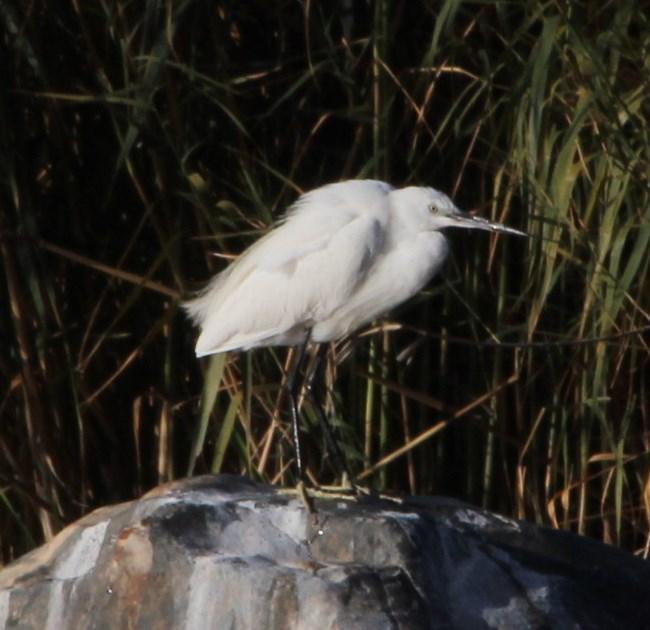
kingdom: Animalia
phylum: Chordata
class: Aves
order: Pelecaniformes
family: Ardeidae
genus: Egretta
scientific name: Egretta garzetta
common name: Little egret
